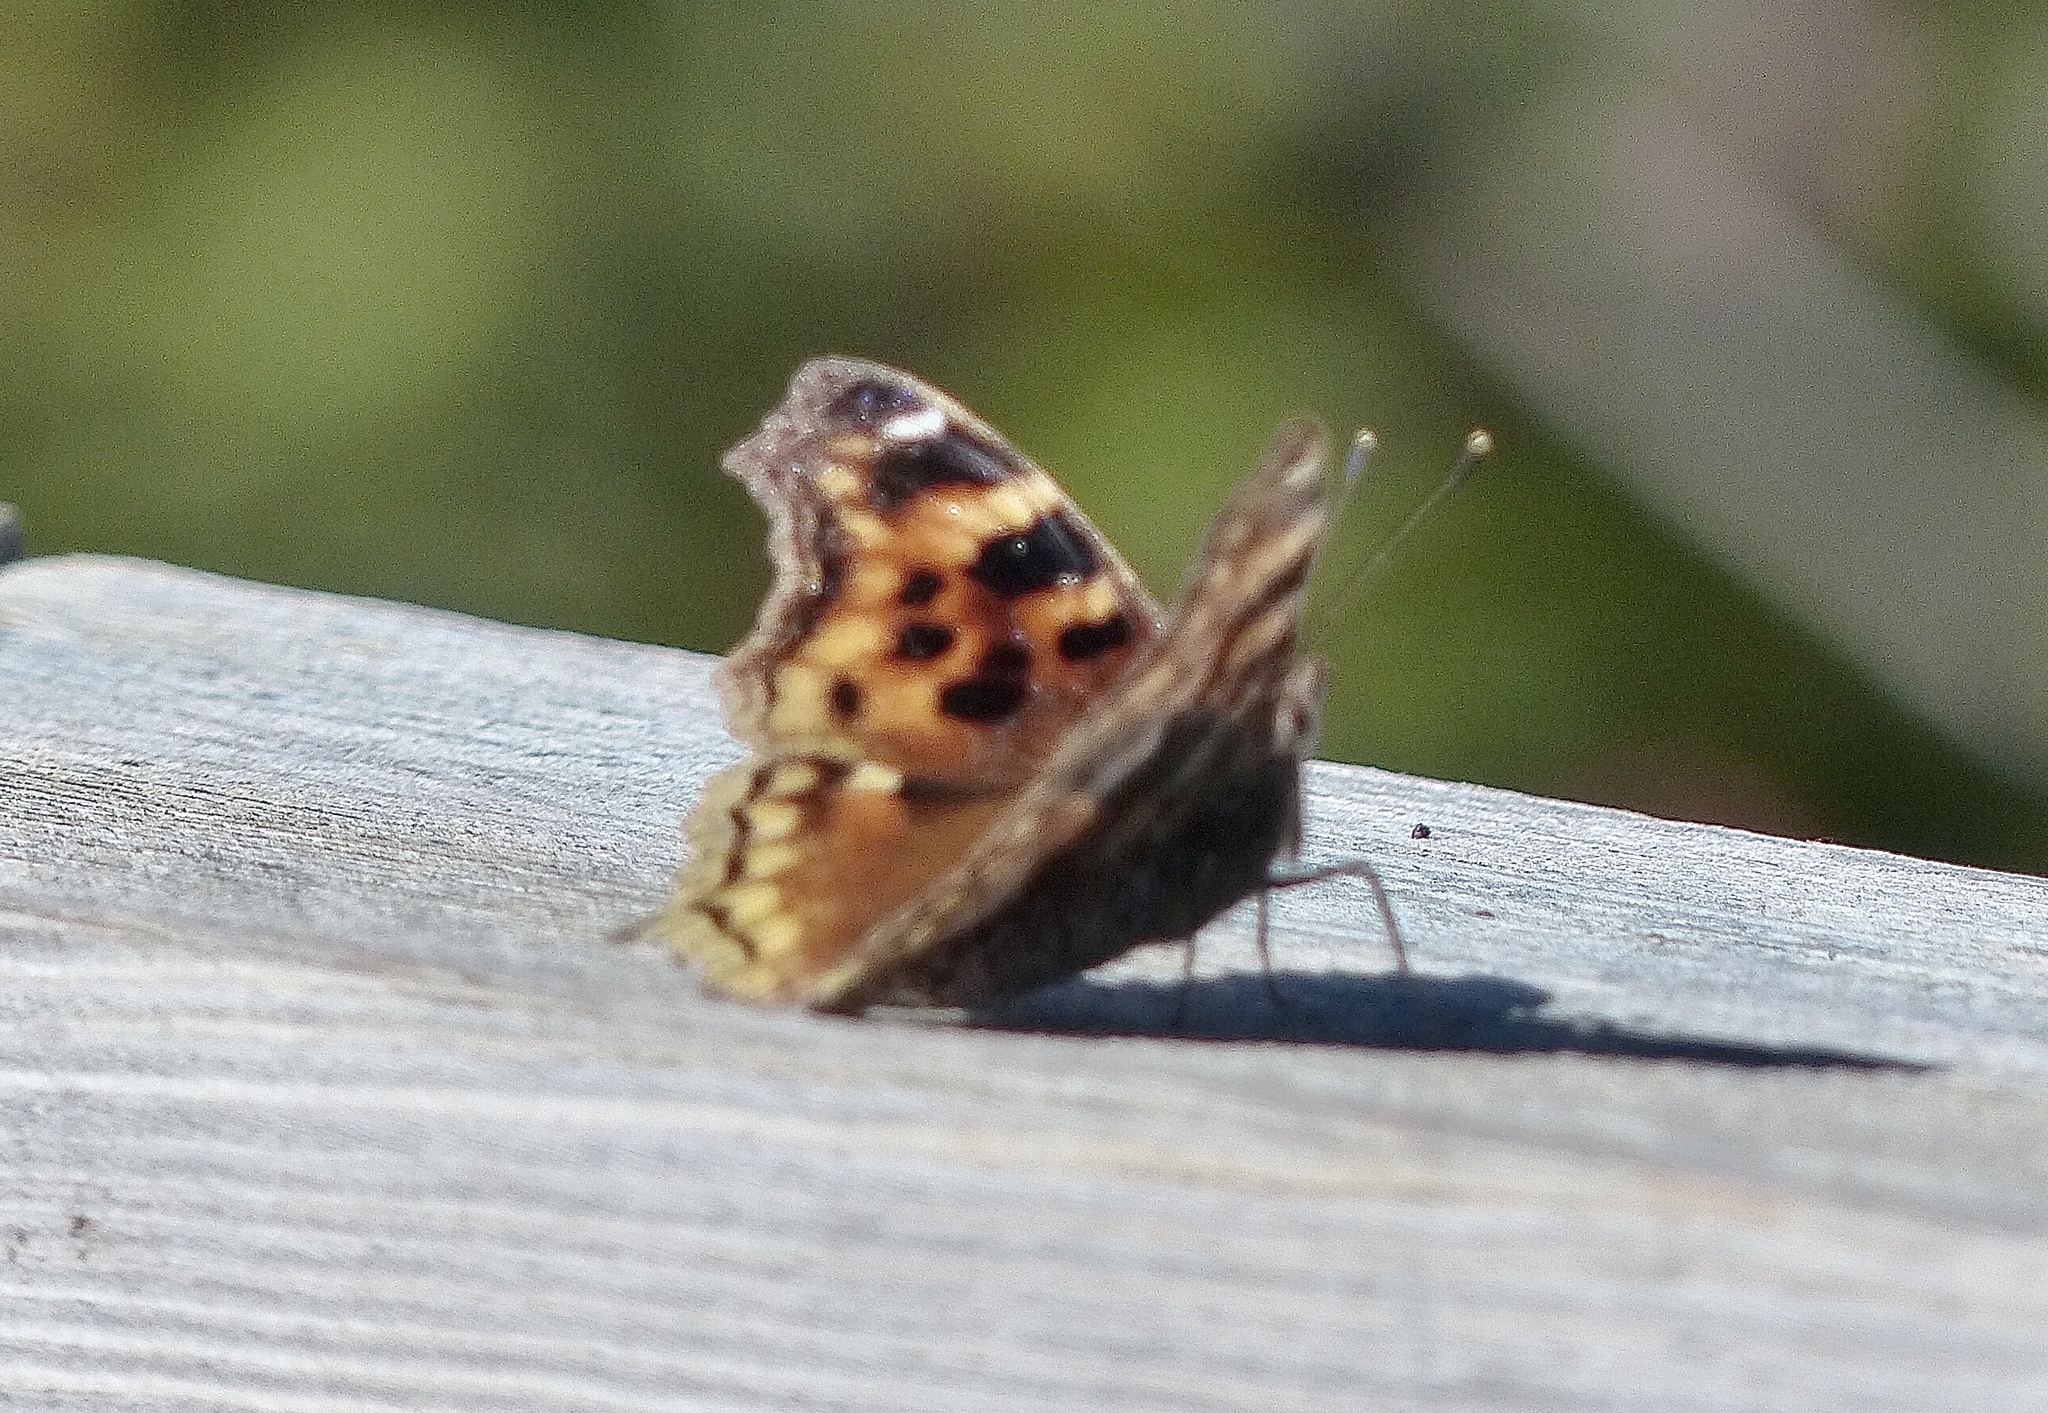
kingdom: Animalia
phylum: Arthropoda
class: Insecta
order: Lepidoptera
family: Nymphalidae
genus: Polygonia
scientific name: Polygonia vaualbum
